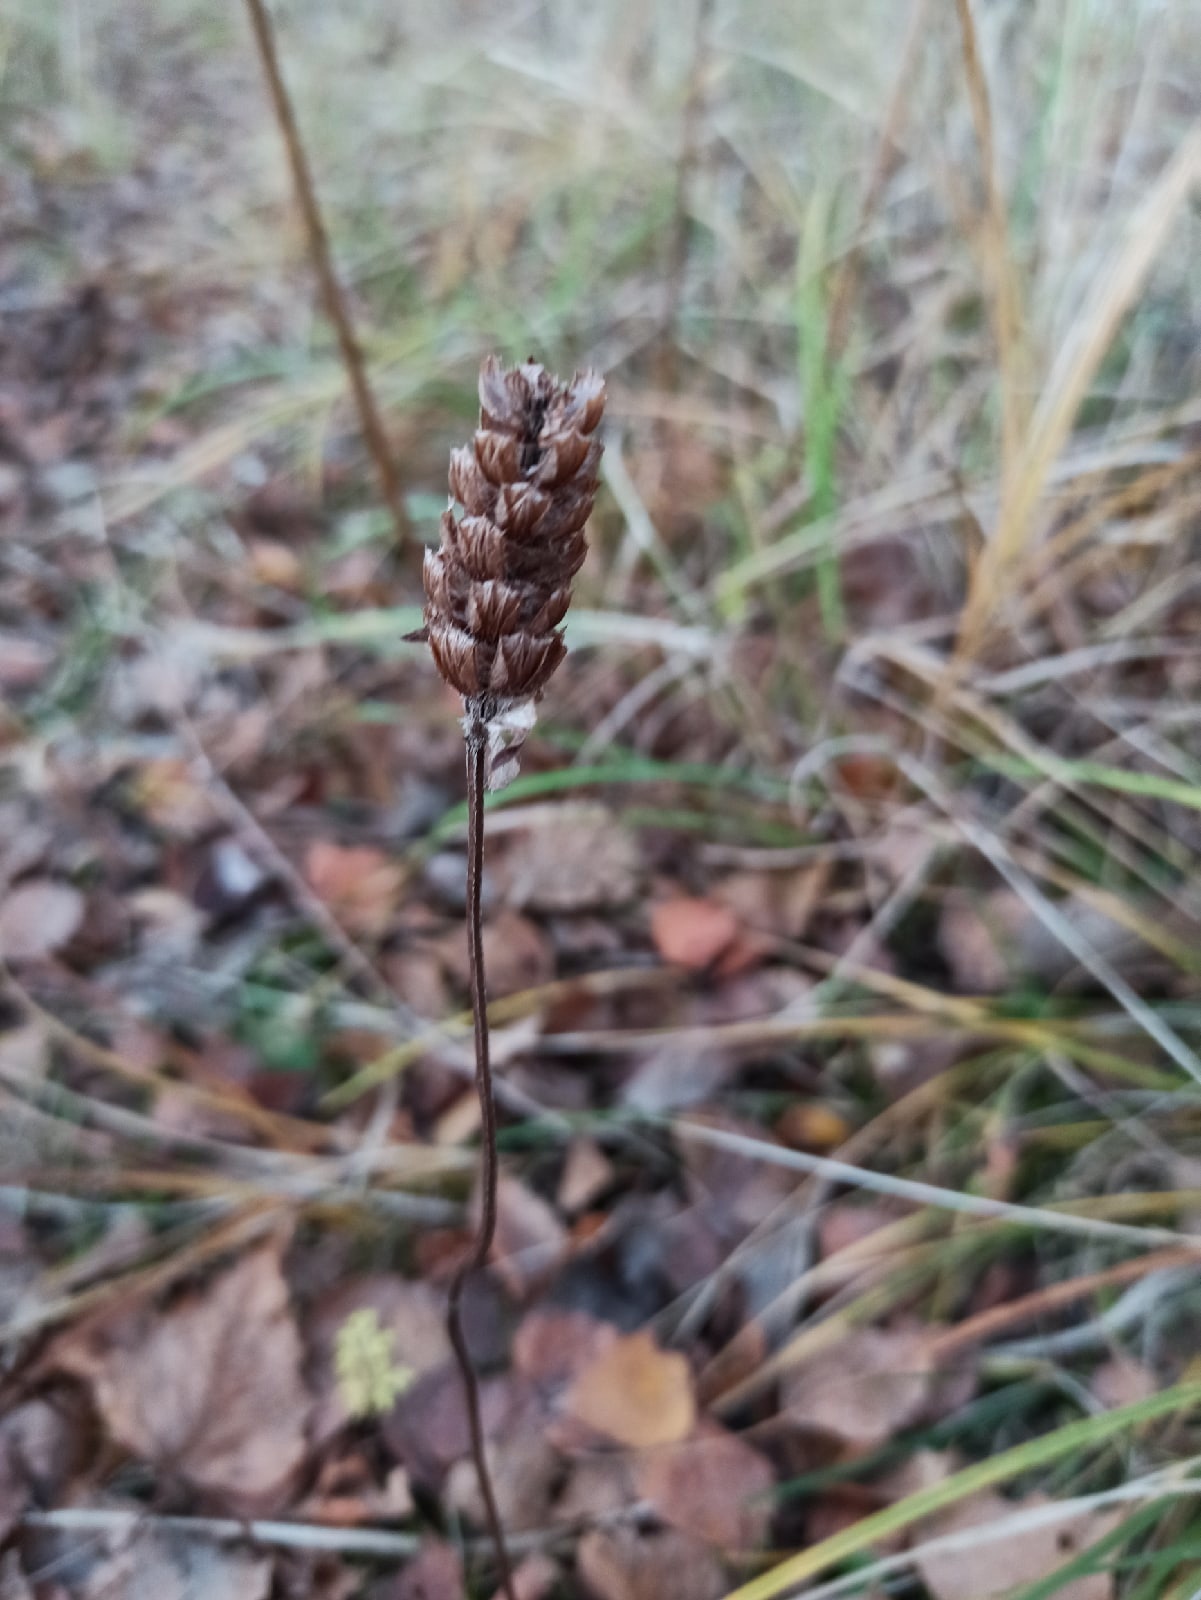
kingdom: Plantae
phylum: Tracheophyta
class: Magnoliopsida
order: Lamiales
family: Lamiaceae
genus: Prunella
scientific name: Prunella vulgaris
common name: Heal-all
